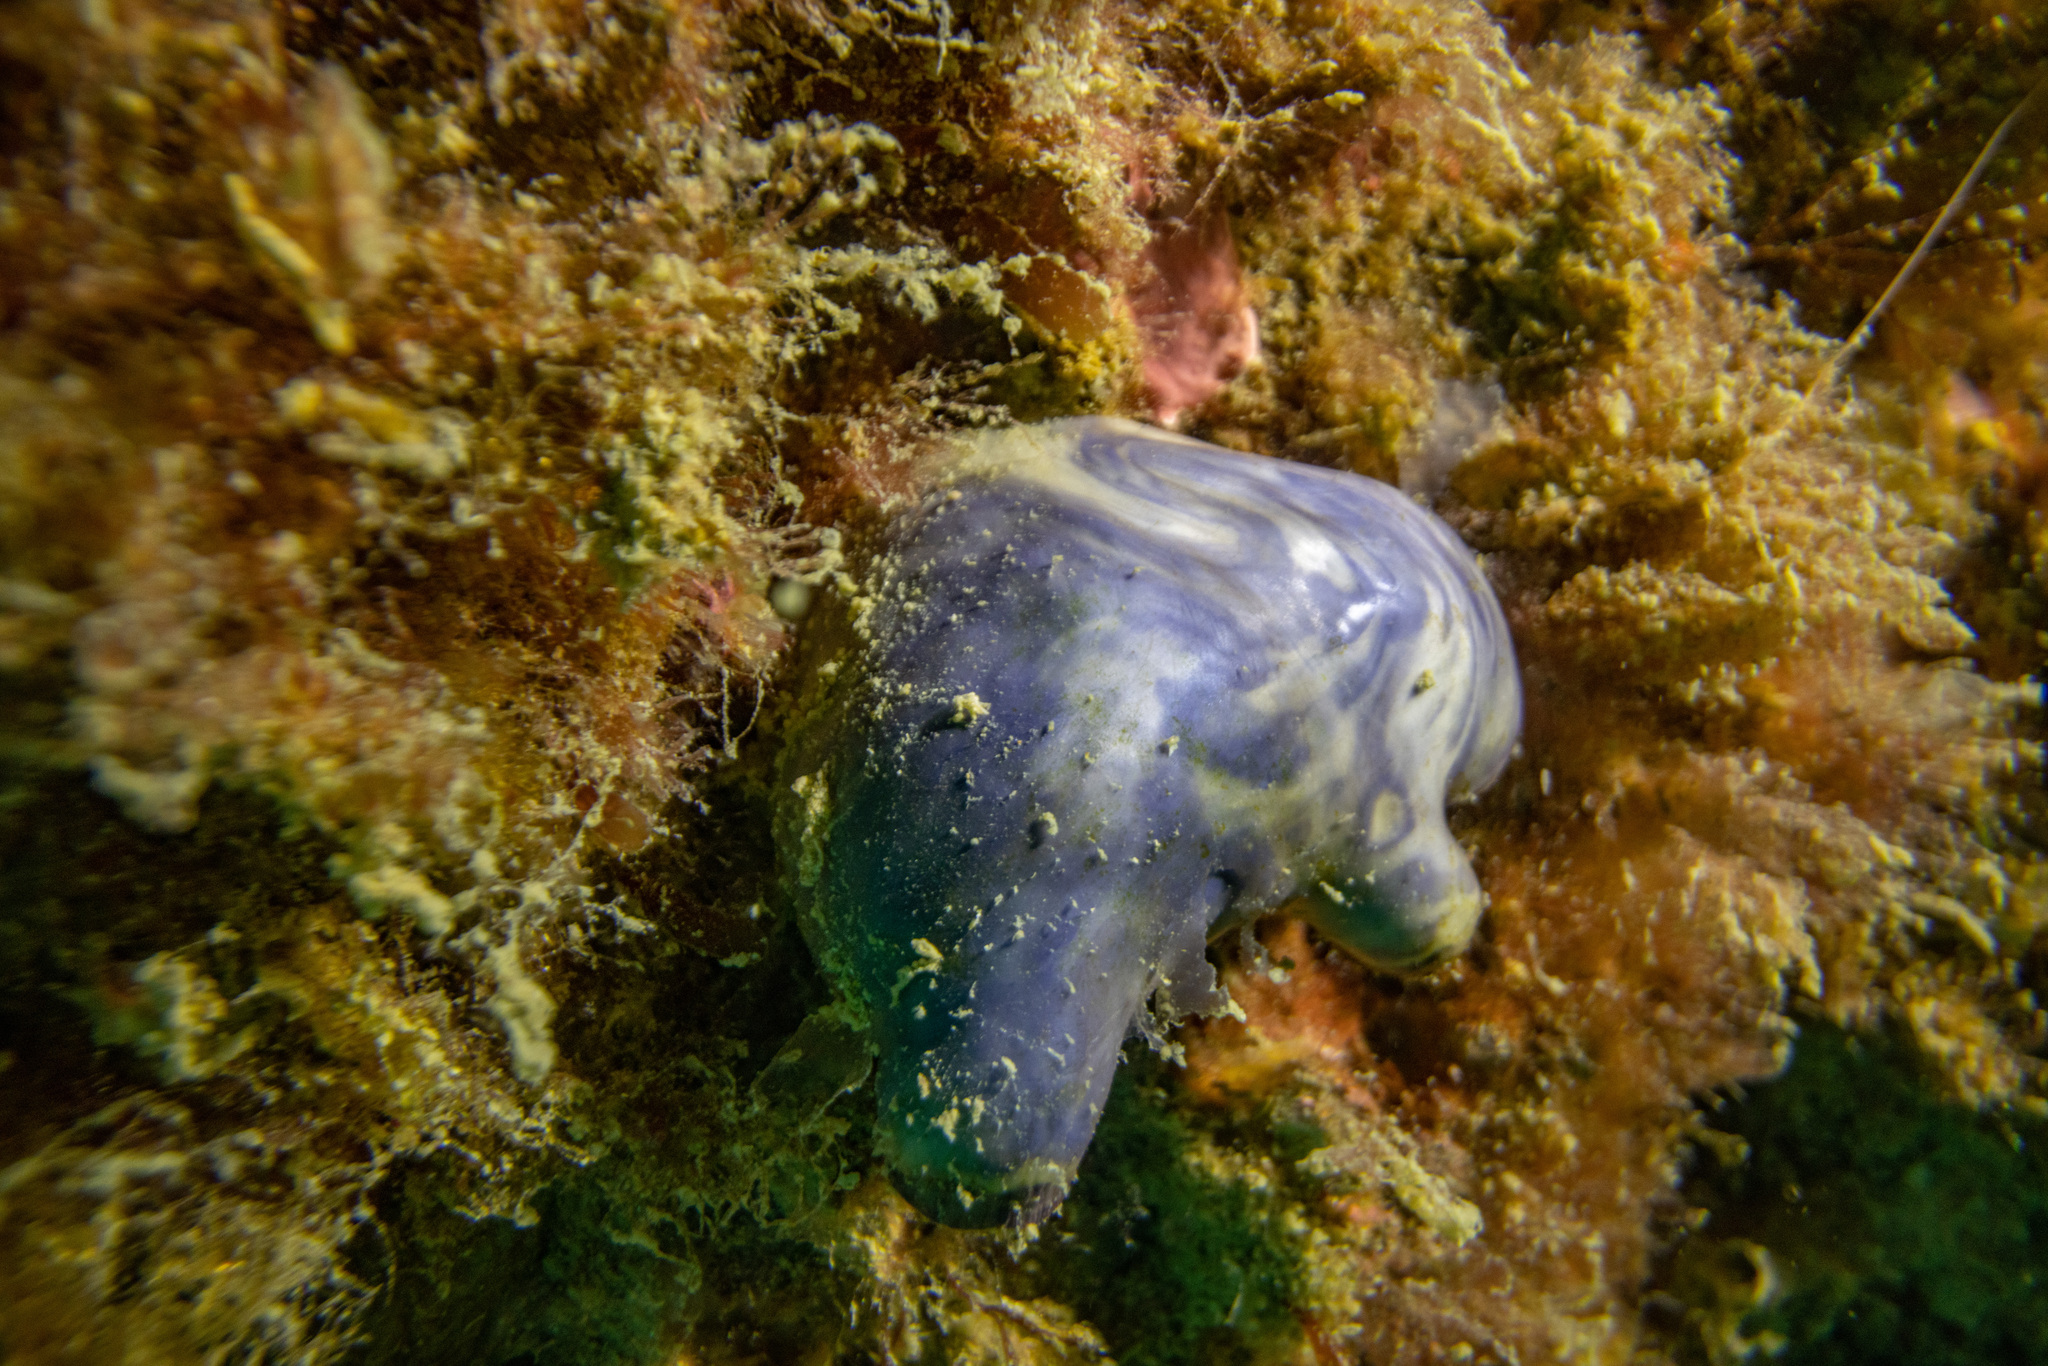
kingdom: Animalia
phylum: Chordata
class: Ascidiacea
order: Stolidobranchia
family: Styelidae
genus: Asterocarpa
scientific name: Asterocarpa coerulea
